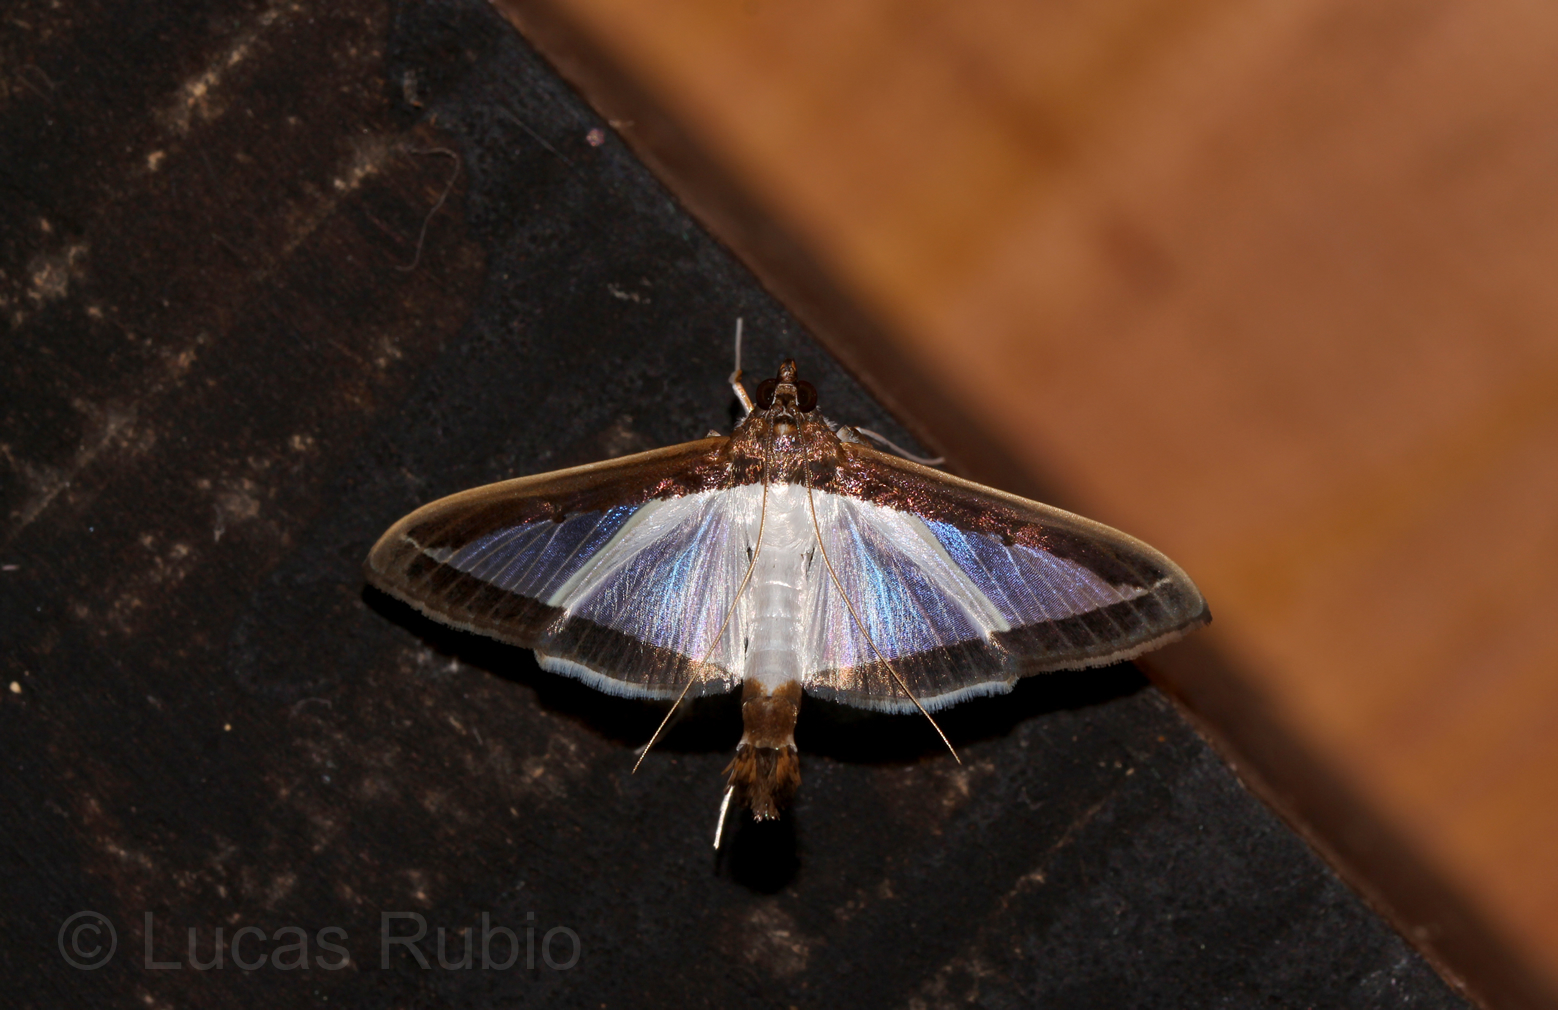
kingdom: Animalia
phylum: Arthropoda
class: Insecta
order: Lepidoptera
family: Crambidae
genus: Diaphania
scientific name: Diaphania hyalinata
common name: Melonworm
